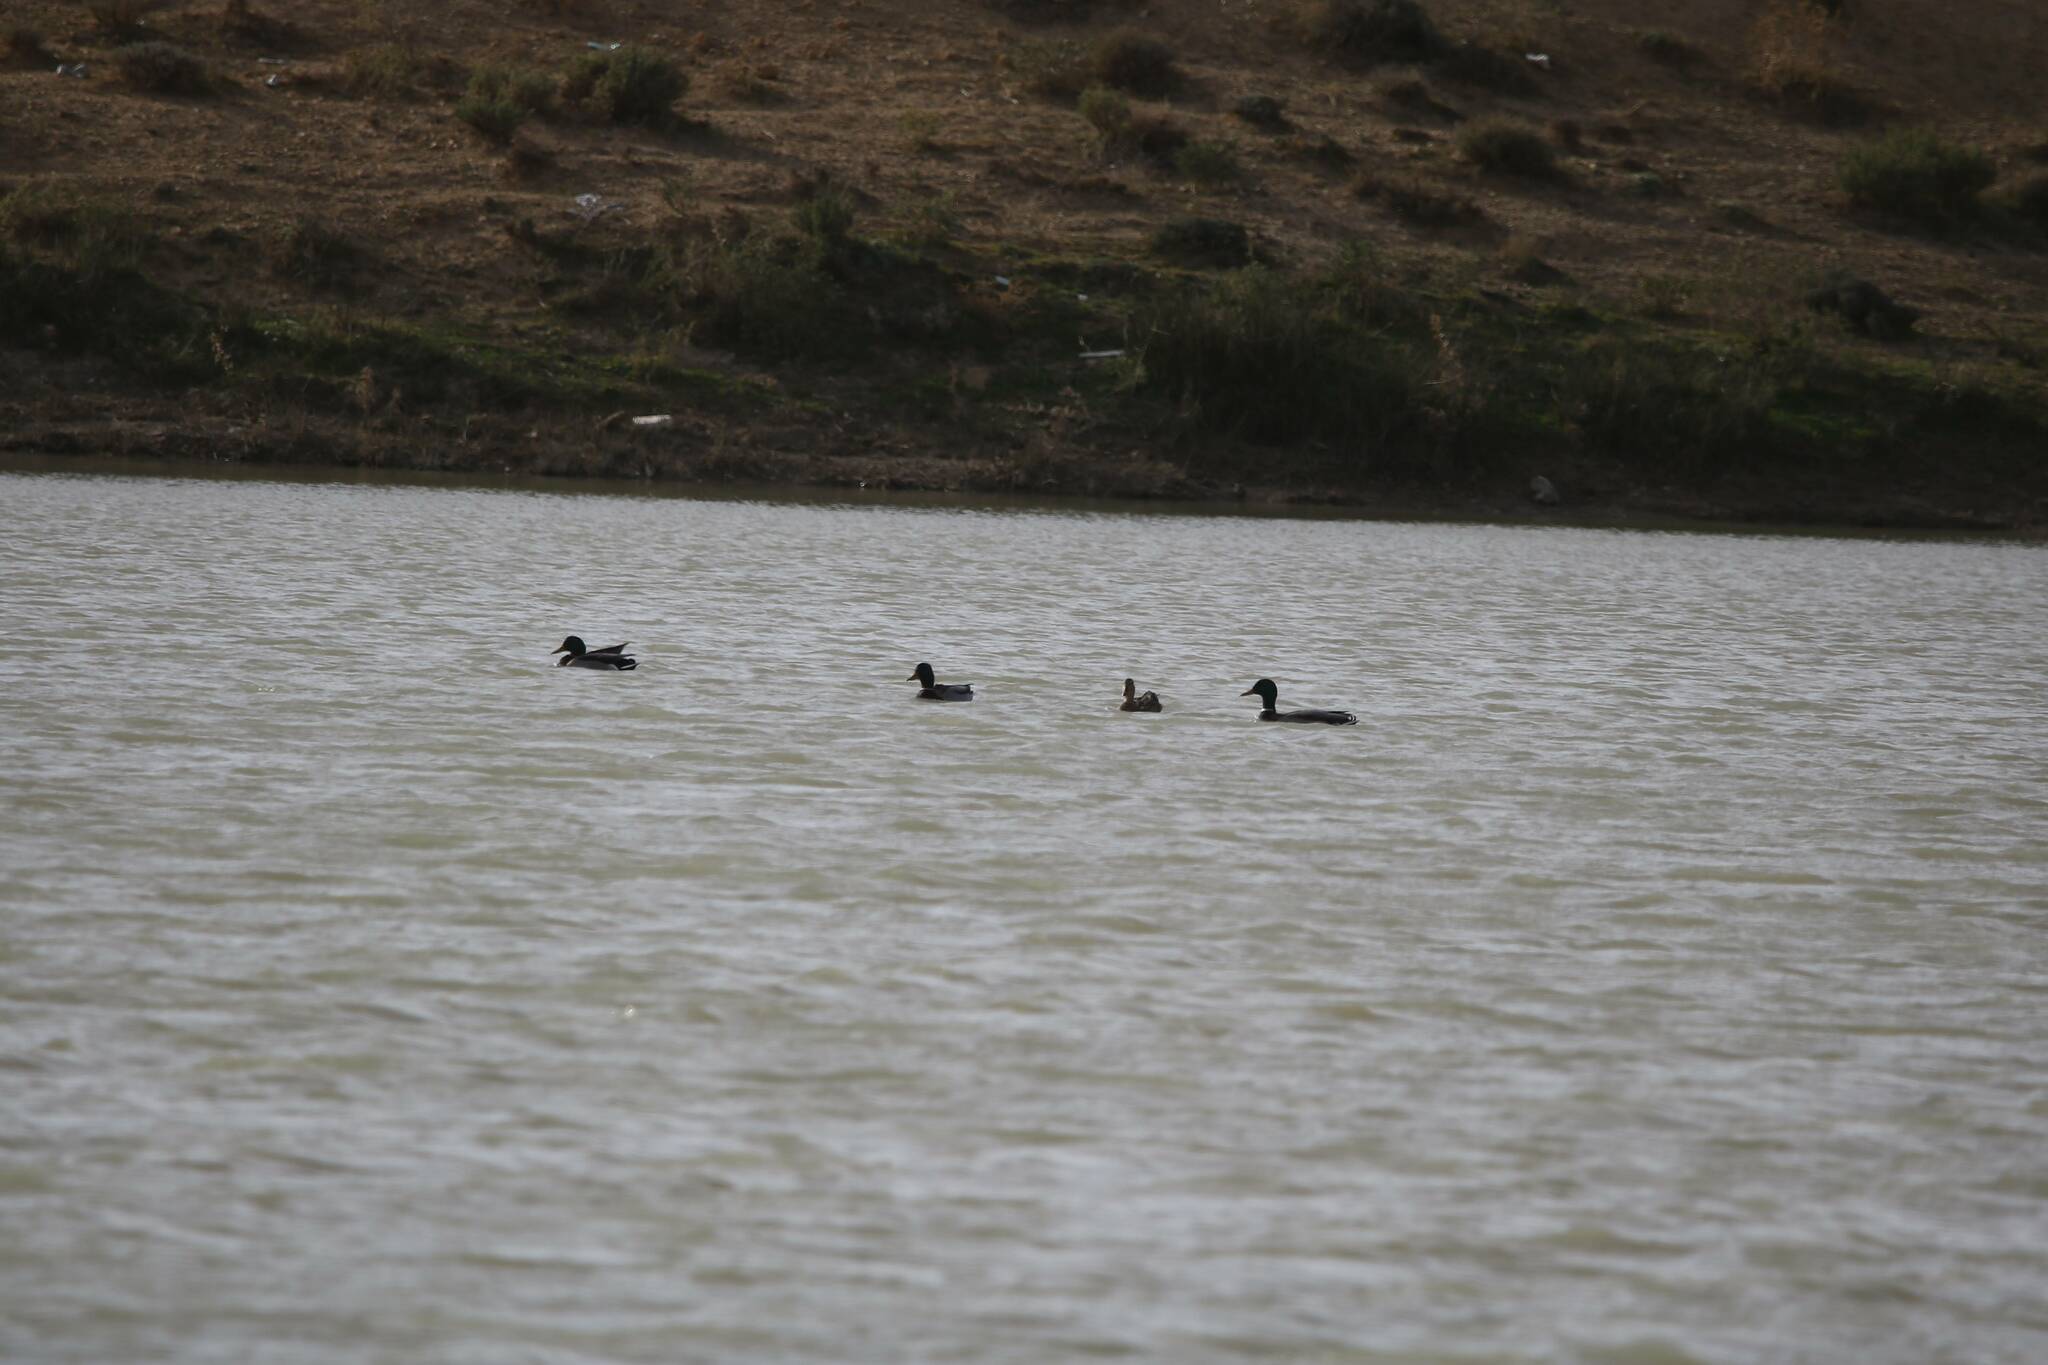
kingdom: Animalia
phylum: Chordata
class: Aves
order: Anseriformes
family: Anatidae
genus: Anas
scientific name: Anas platyrhynchos
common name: Mallard
